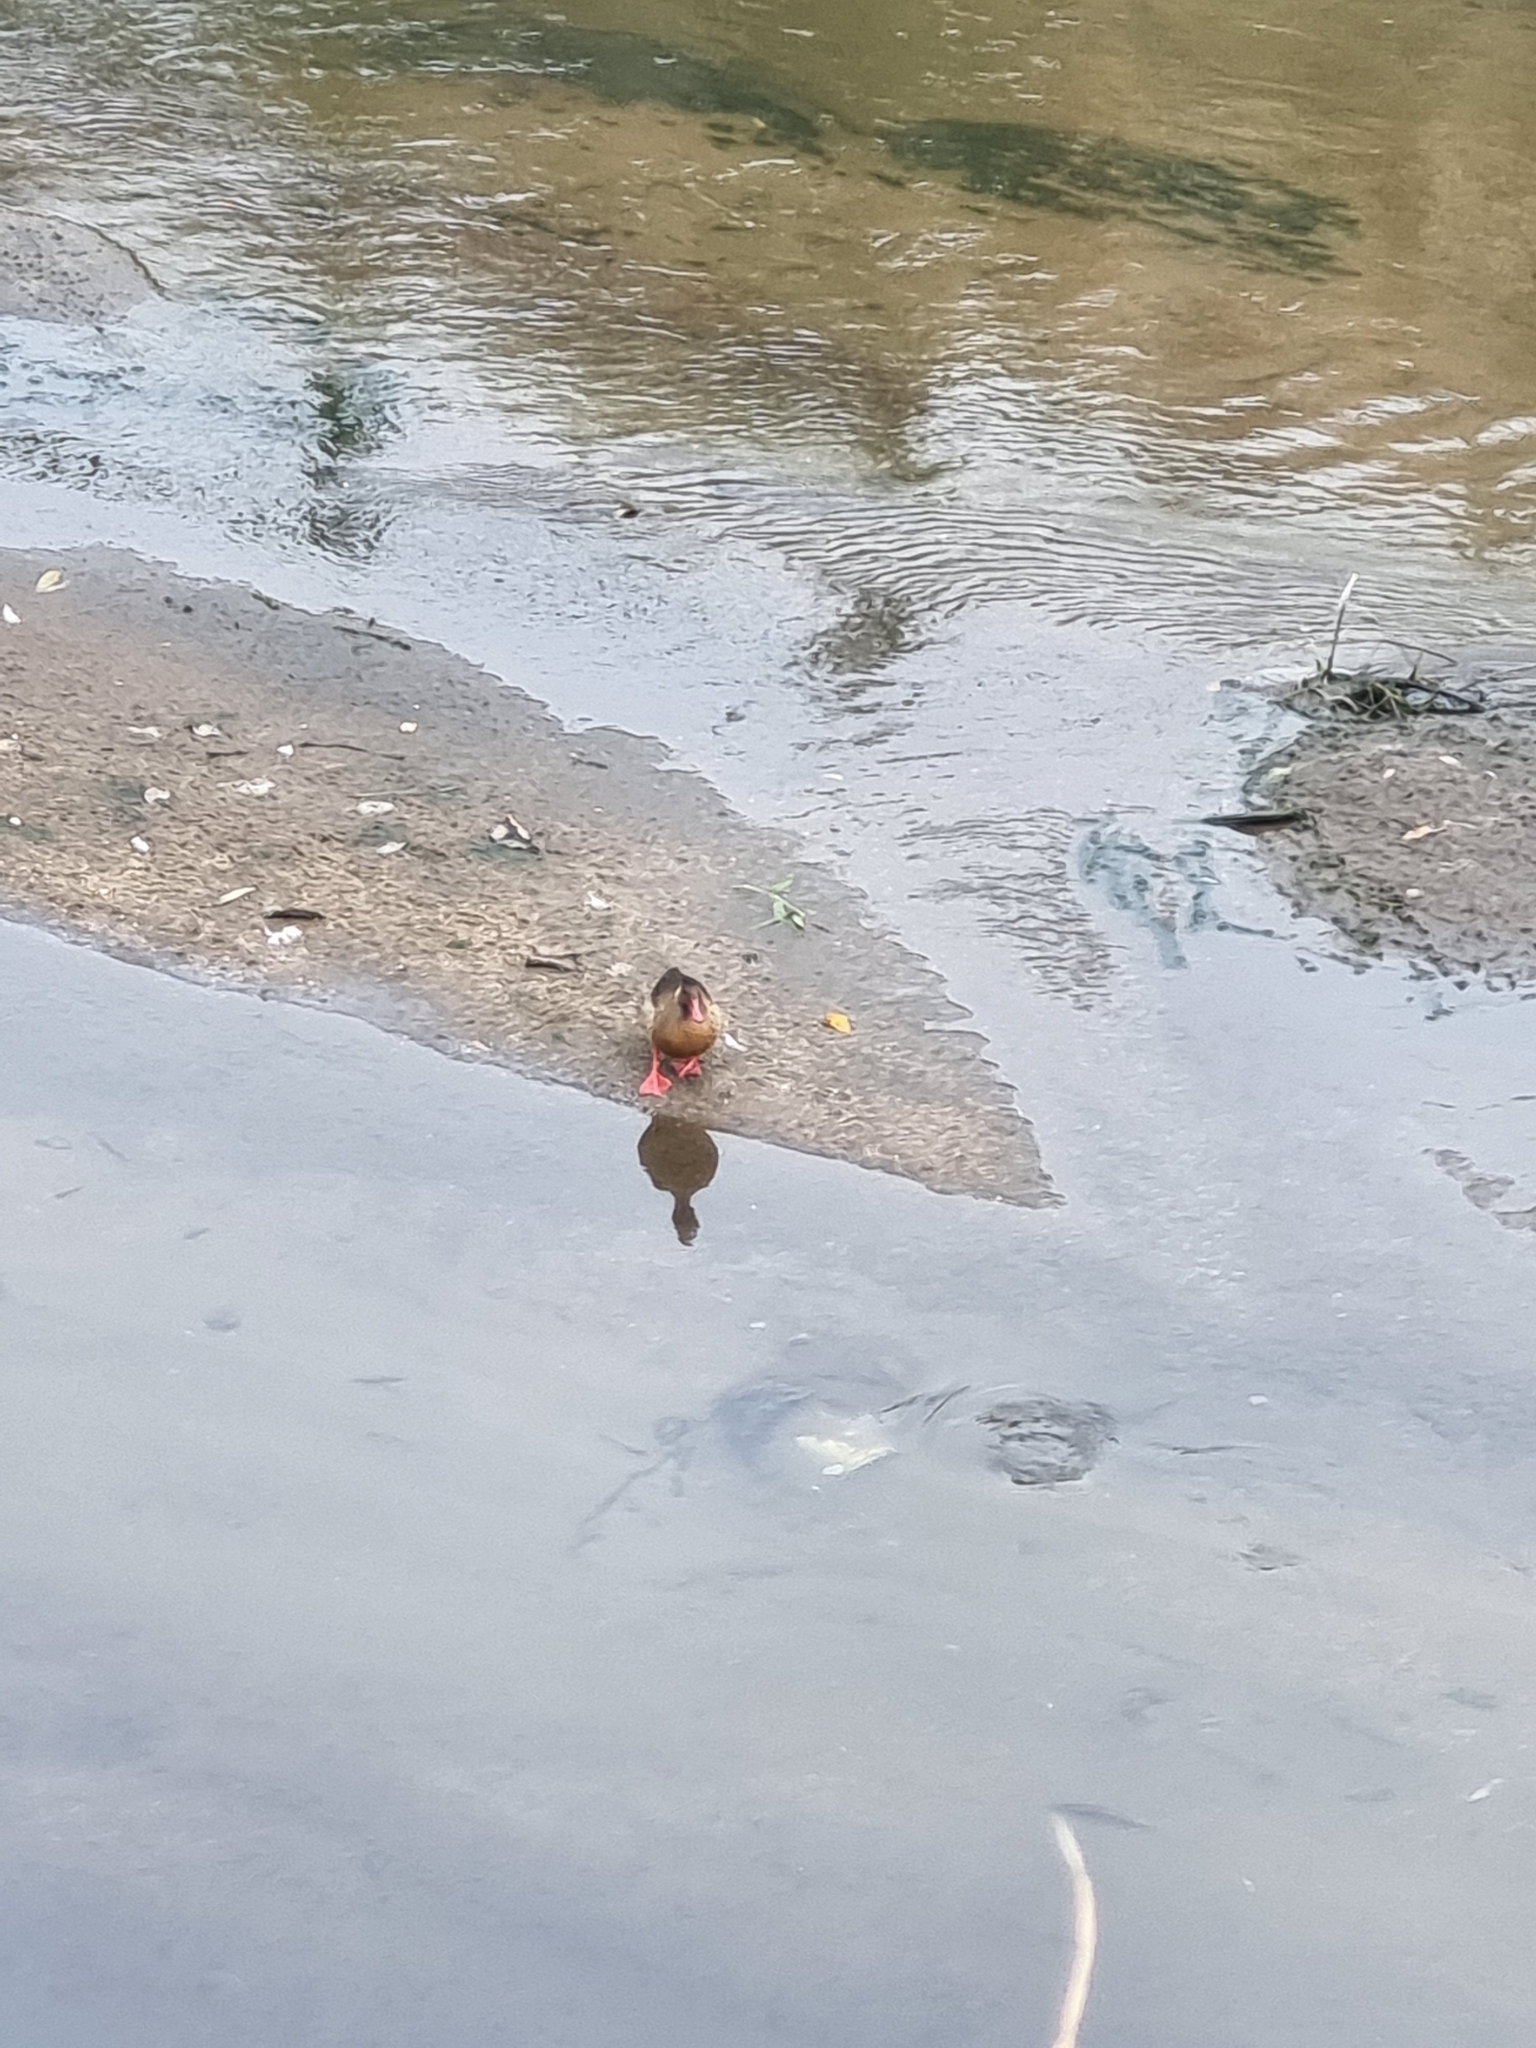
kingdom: Animalia
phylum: Chordata
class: Aves
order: Anseriformes
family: Anatidae
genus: Amazonetta
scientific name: Amazonetta brasiliensis
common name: Brazilian teal
